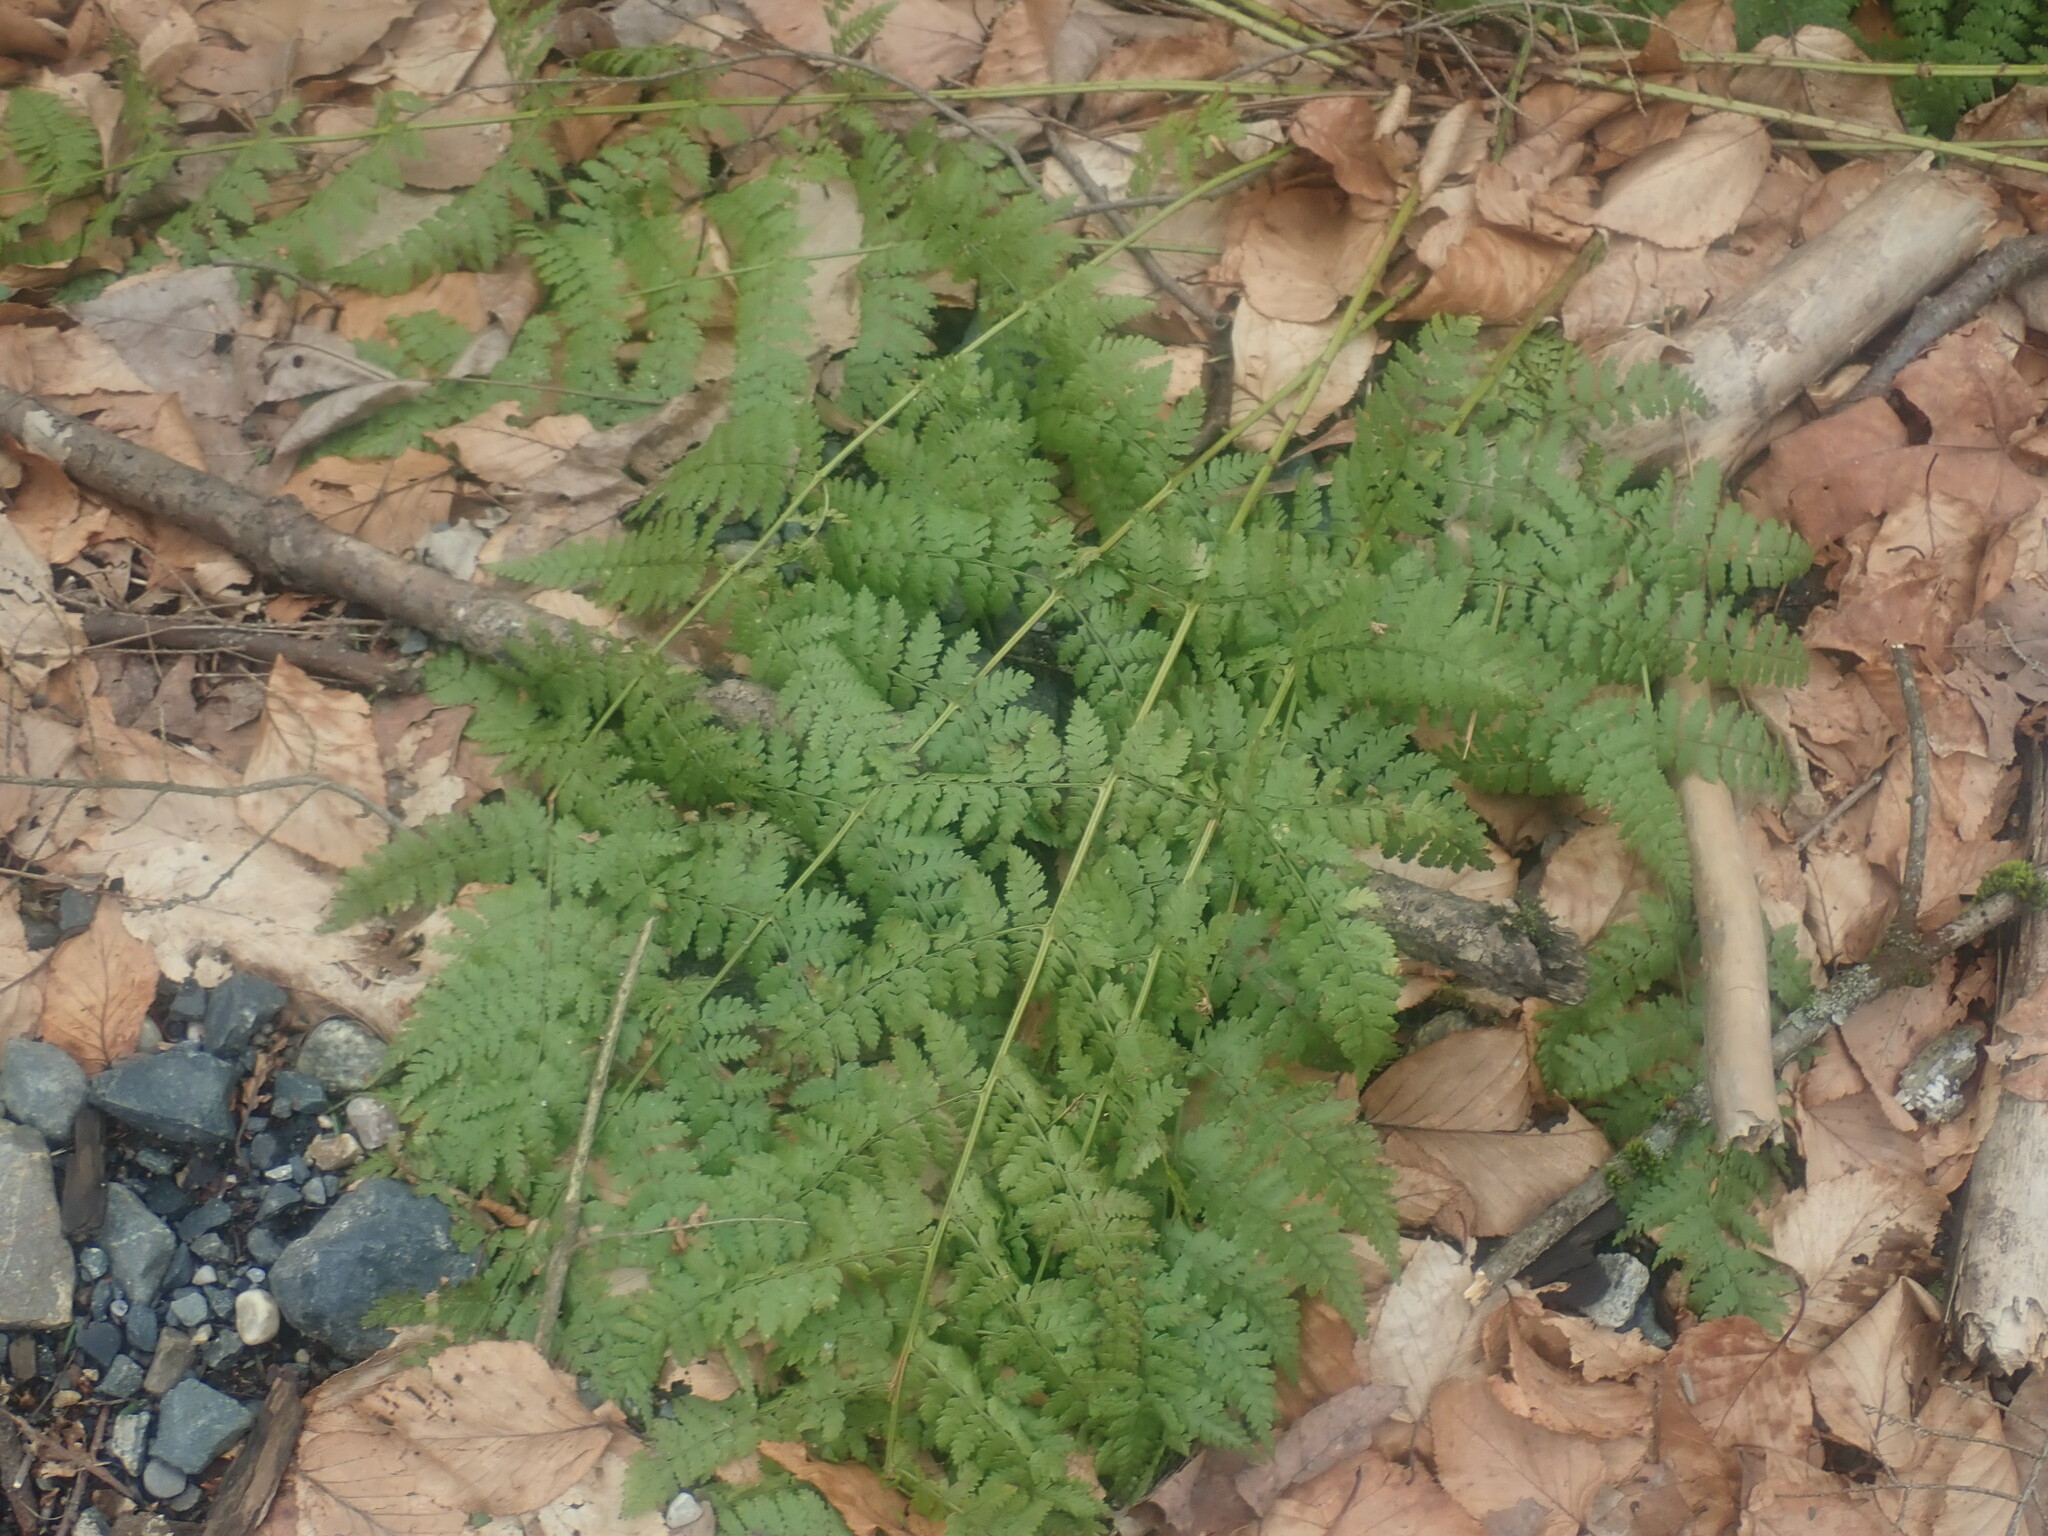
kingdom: Plantae
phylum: Tracheophyta
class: Polypodiopsida
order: Polypodiales
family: Dryopteridaceae
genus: Dryopteris
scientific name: Dryopteris intermedia
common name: Evergreen wood fern
